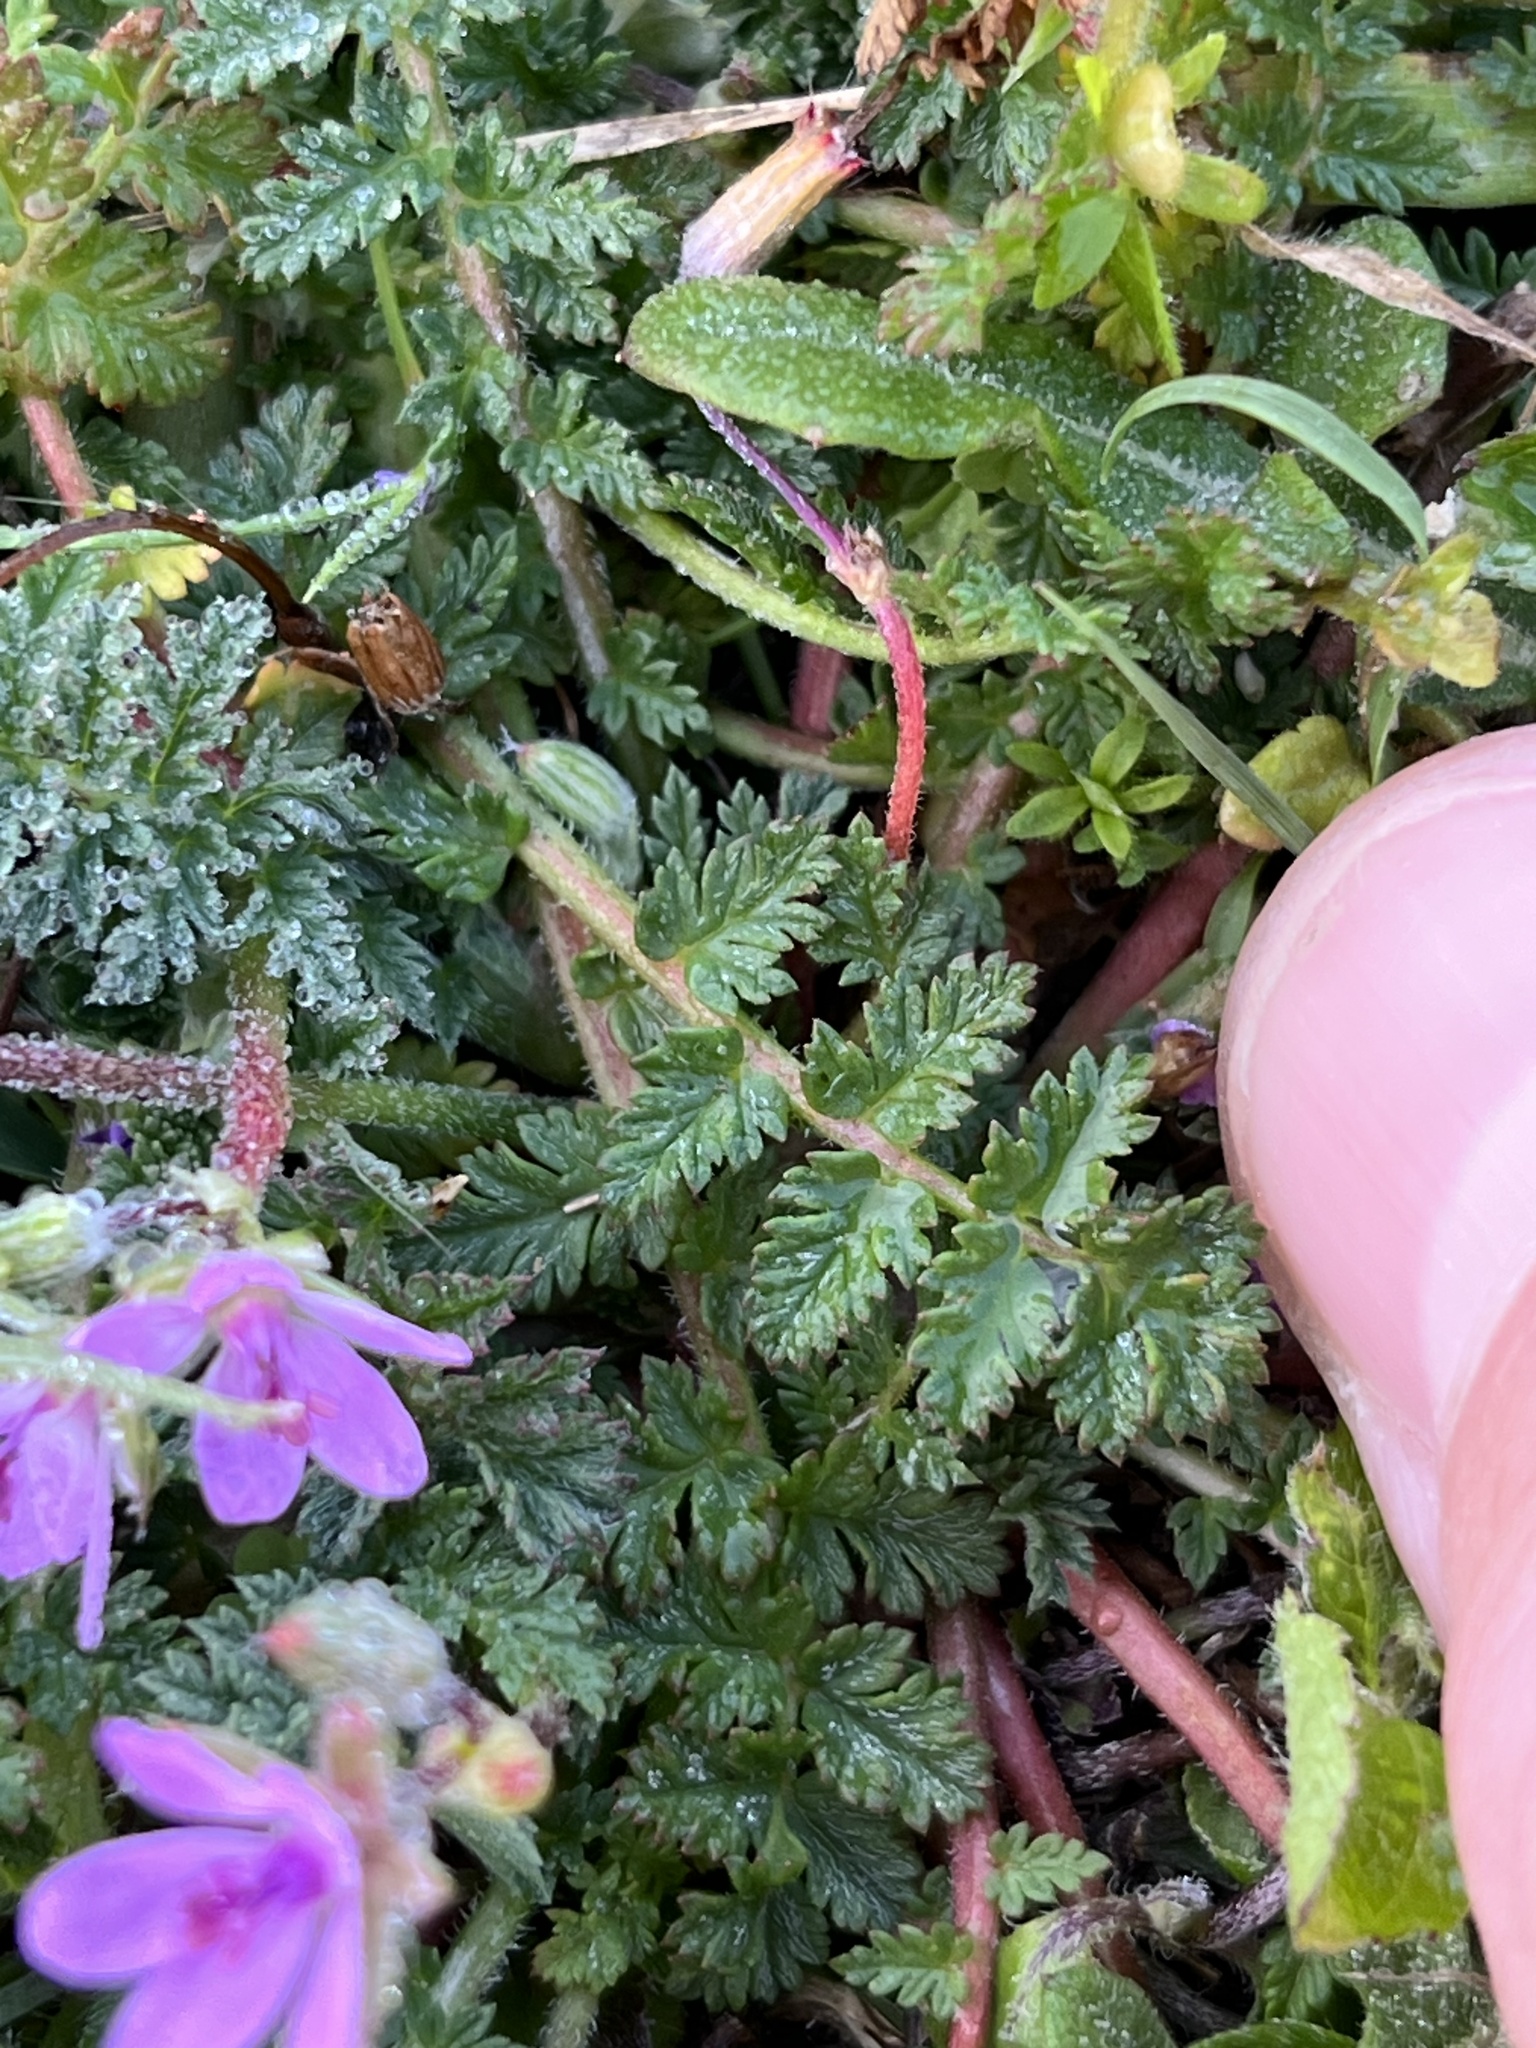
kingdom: Plantae
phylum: Tracheophyta
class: Magnoliopsida
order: Geraniales
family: Geraniaceae
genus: Erodium
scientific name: Erodium cicutarium
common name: Common stork's-bill
